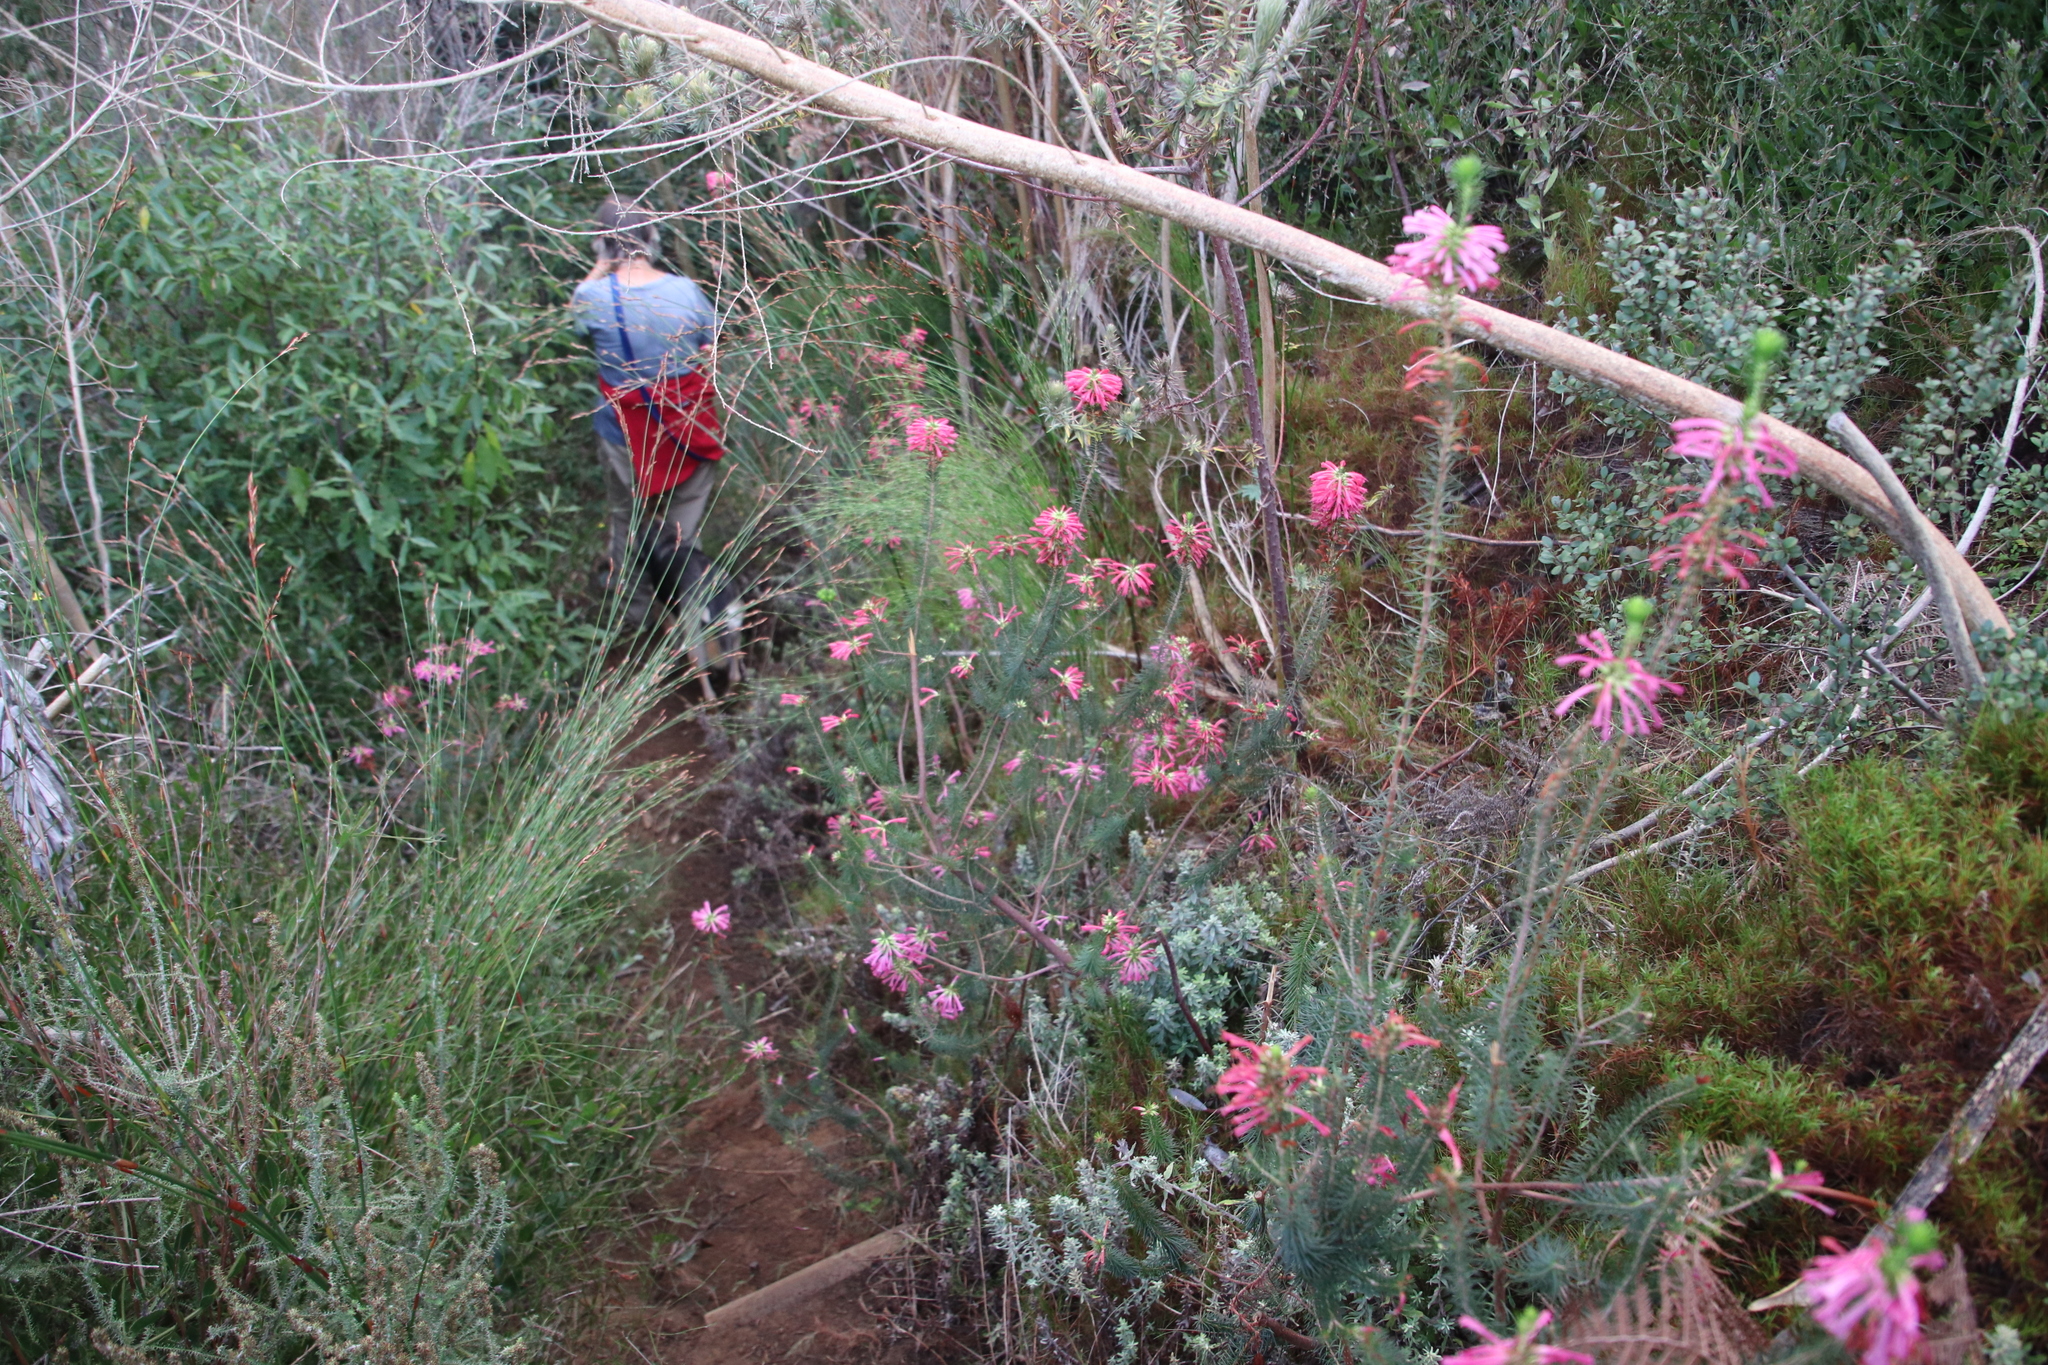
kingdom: Plantae
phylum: Tracheophyta
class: Magnoliopsida
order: Ericales
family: Ericaceae
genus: Erica
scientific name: Erica abietina
